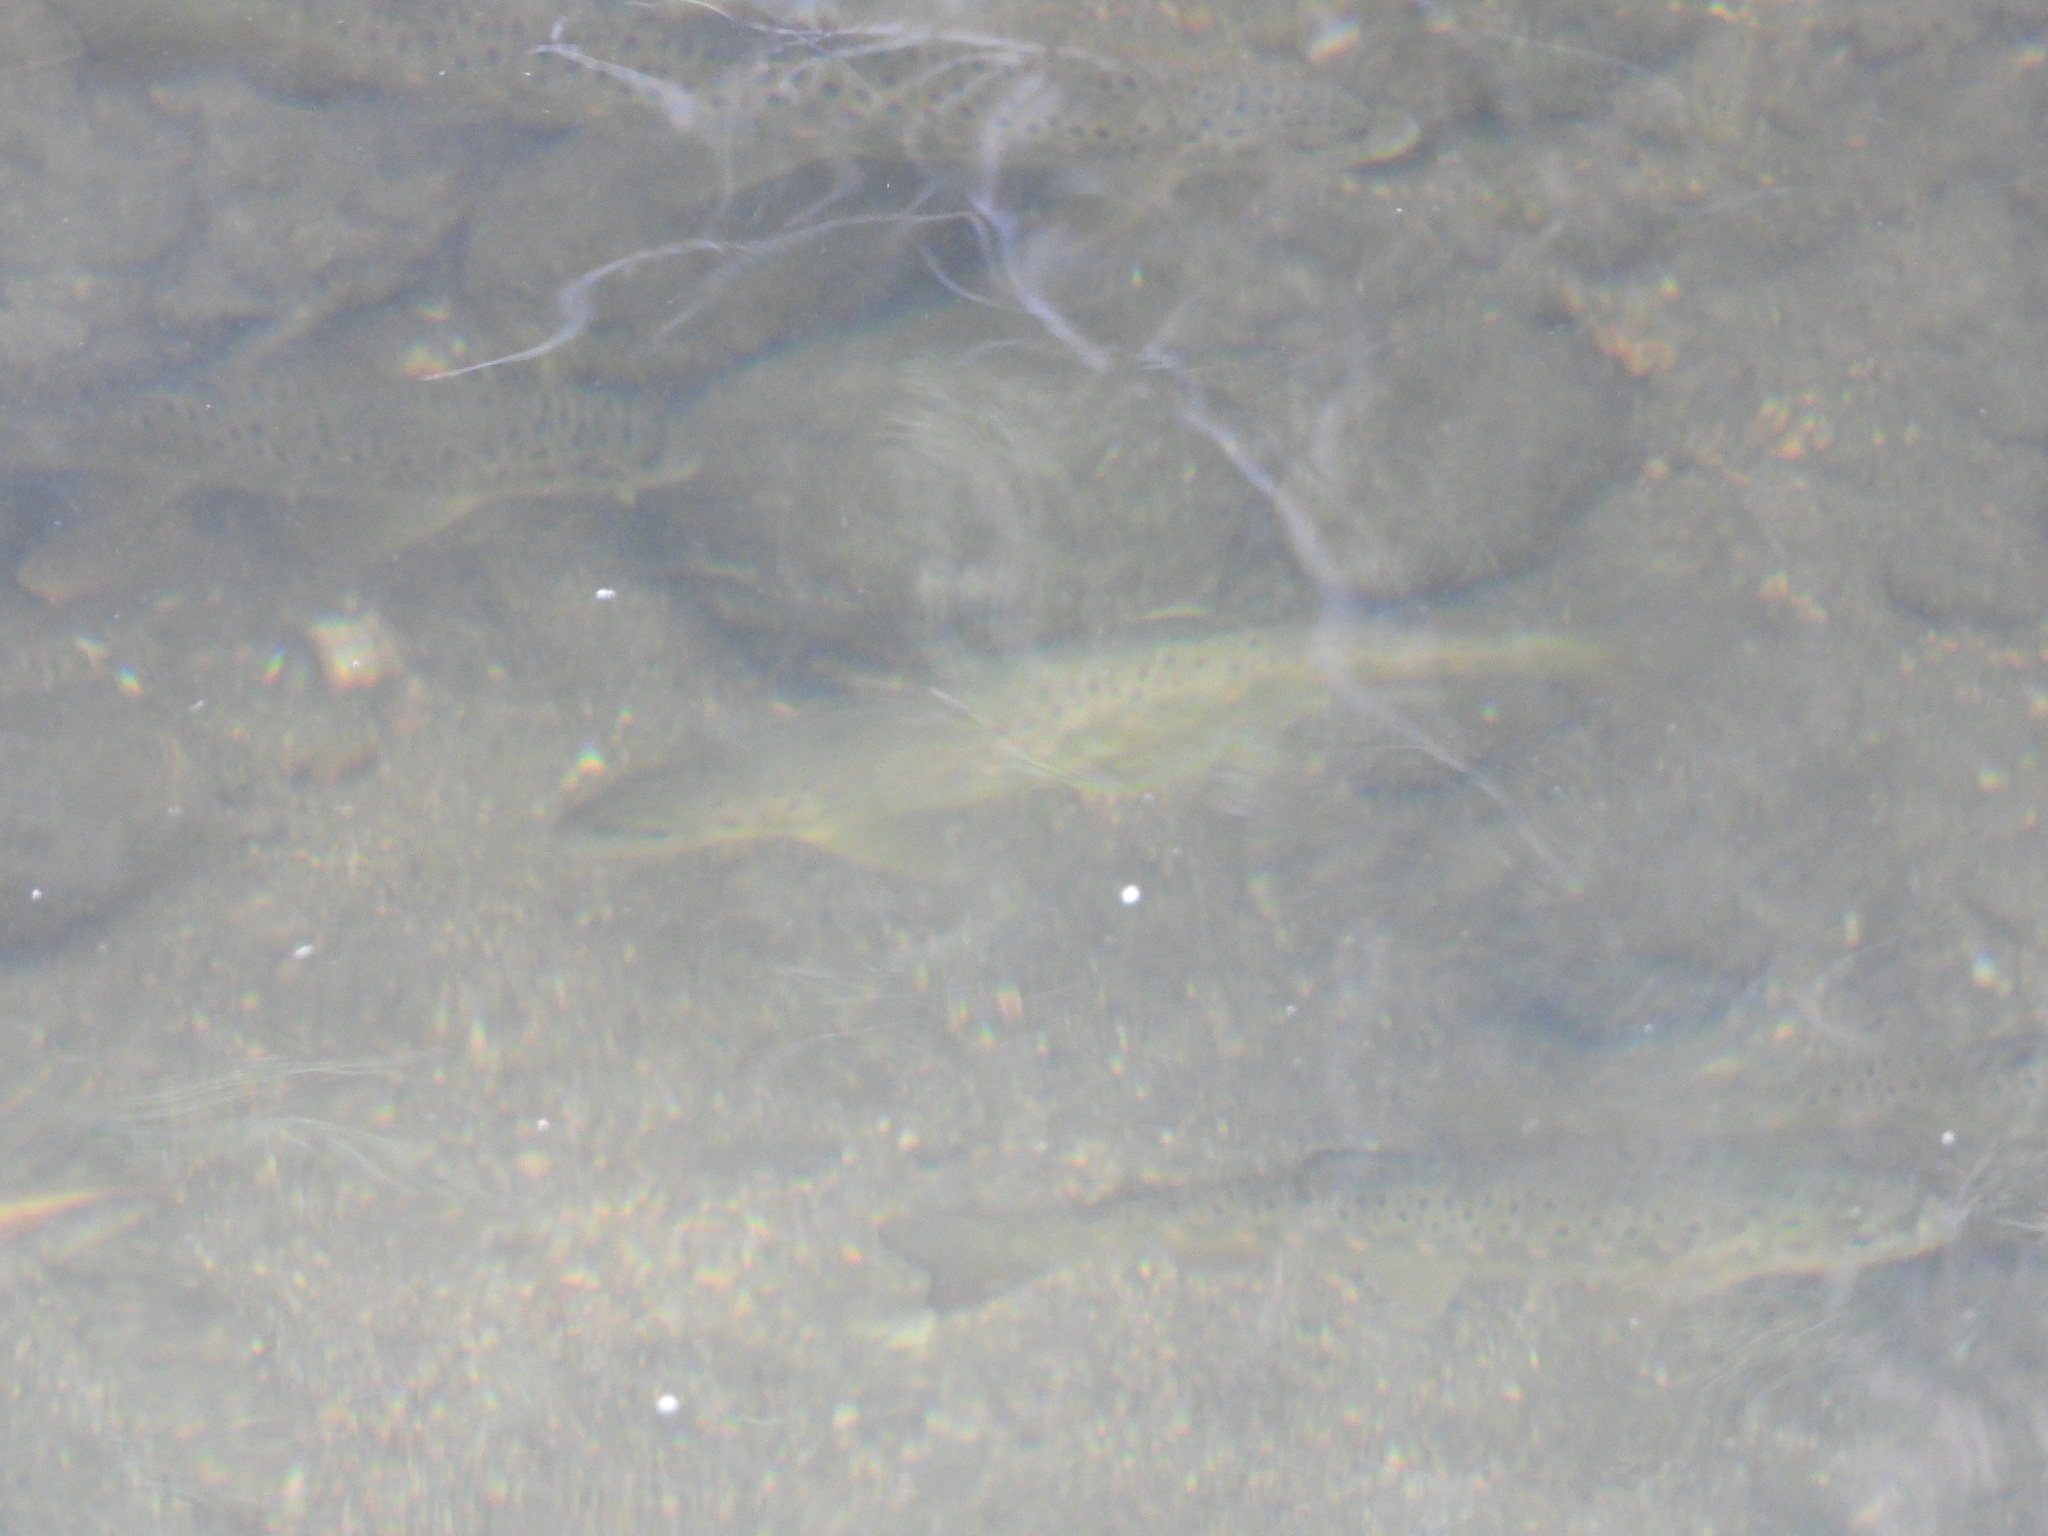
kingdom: Animalia
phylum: Chordata
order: Salmoniformes
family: Salmonidae
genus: Salmo
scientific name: Salmo trutta
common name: Brown trout
